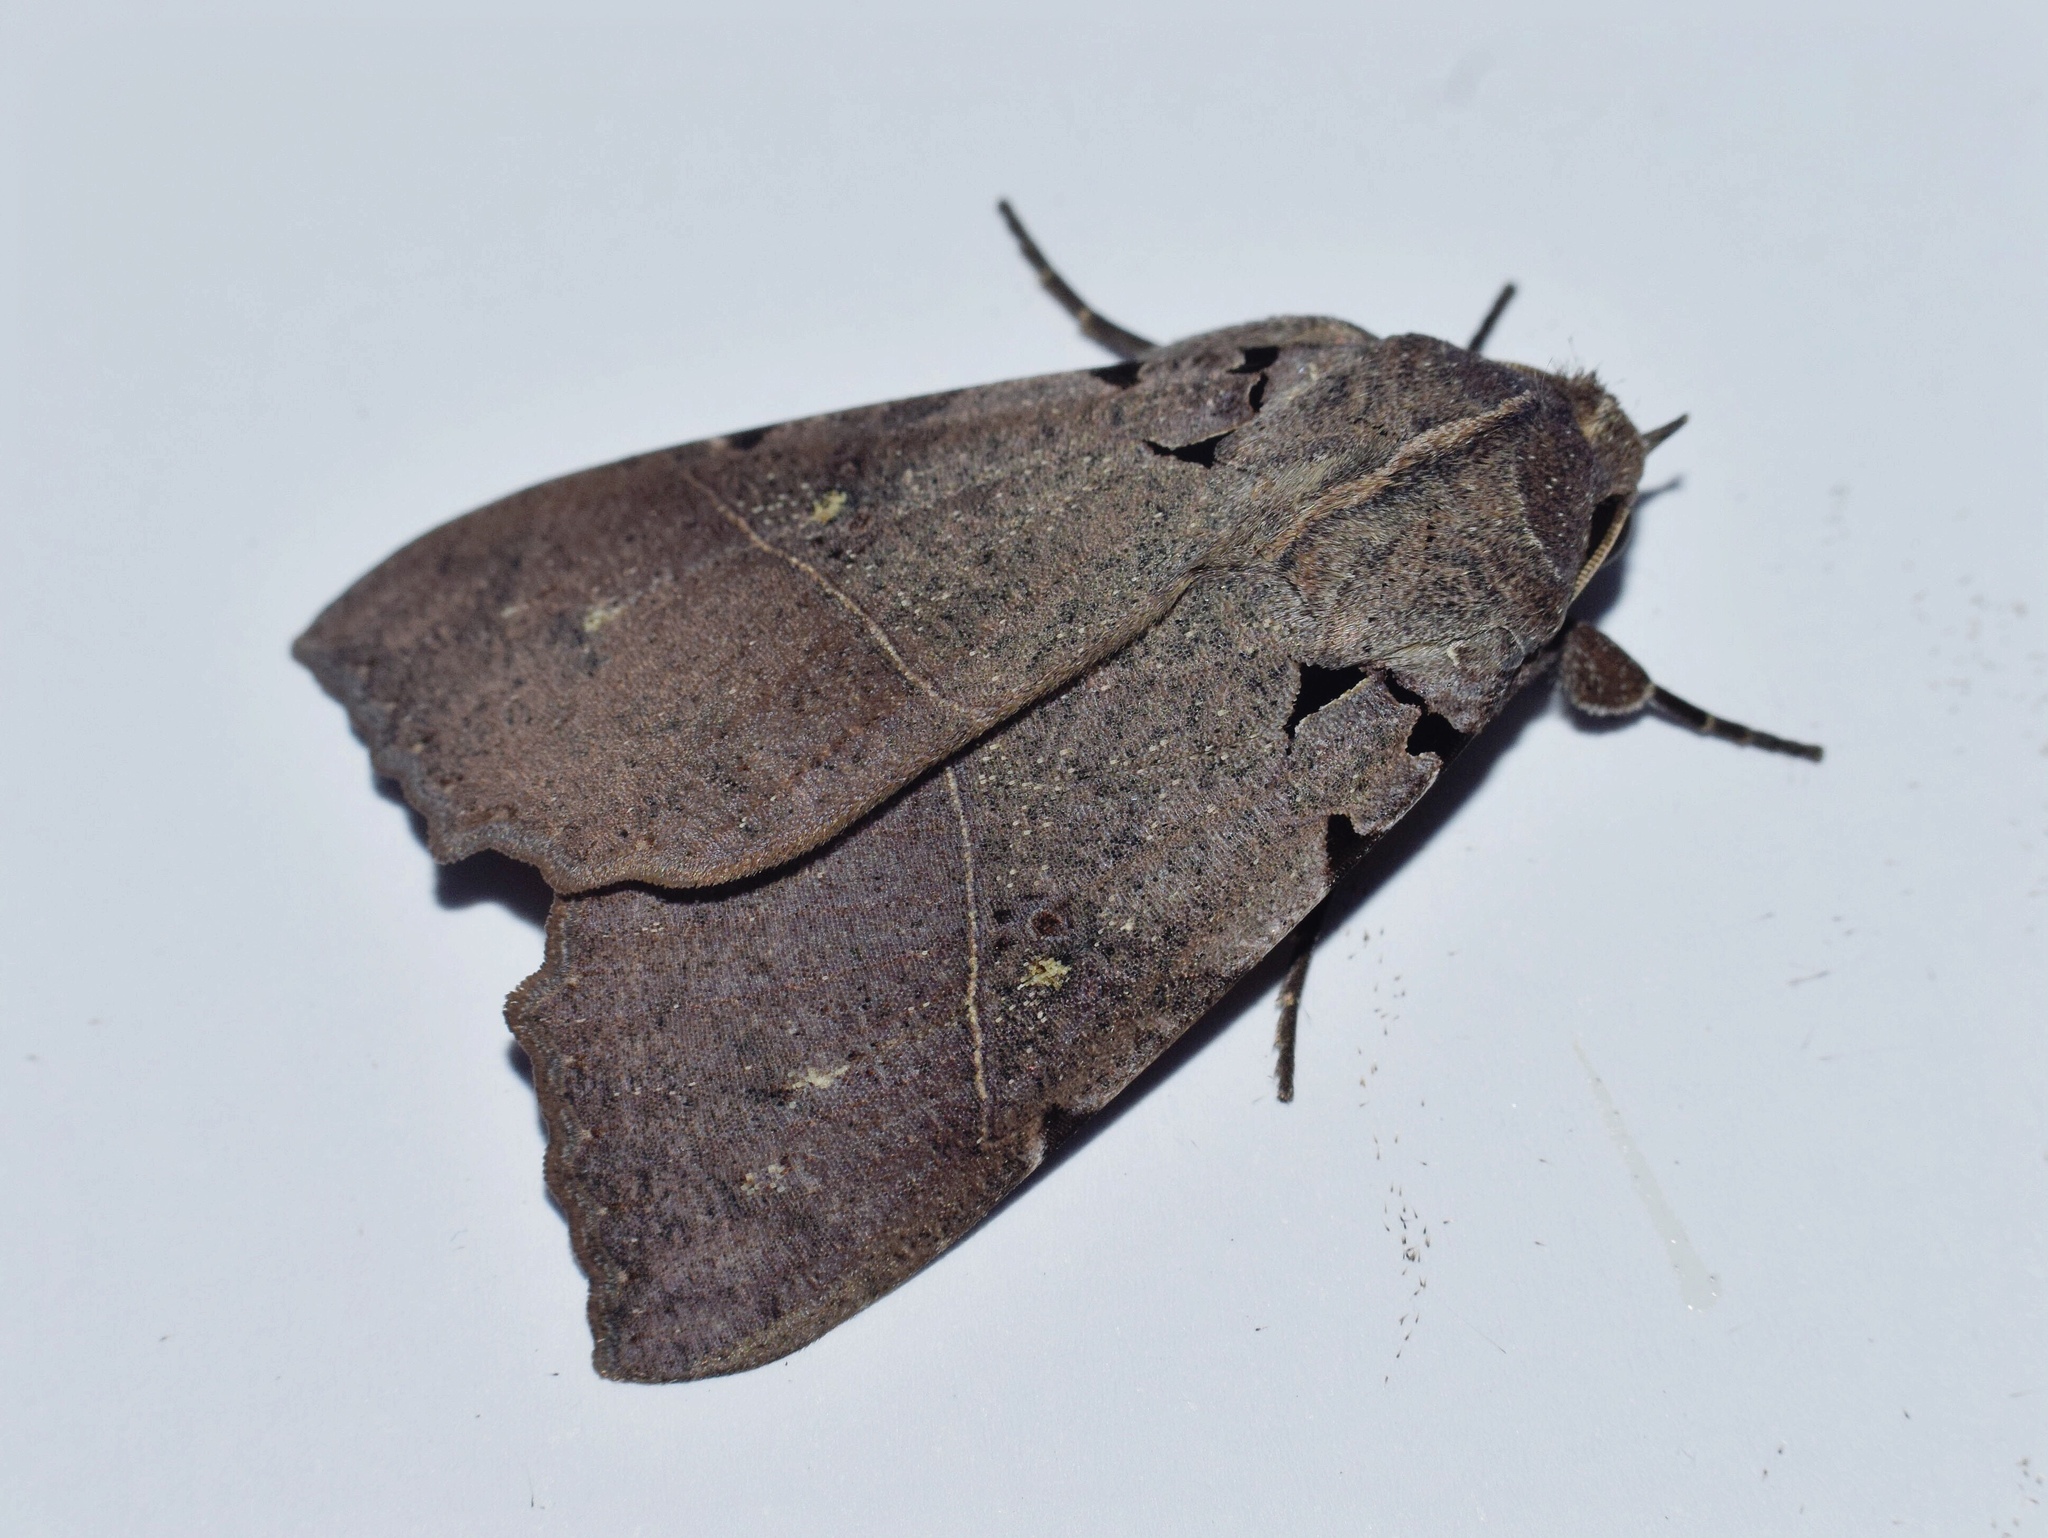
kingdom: Animalia
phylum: Arthropoda
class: Insecta
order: Lepidoptera
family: Erebidae
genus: Serrodes
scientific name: Serrodes campana
